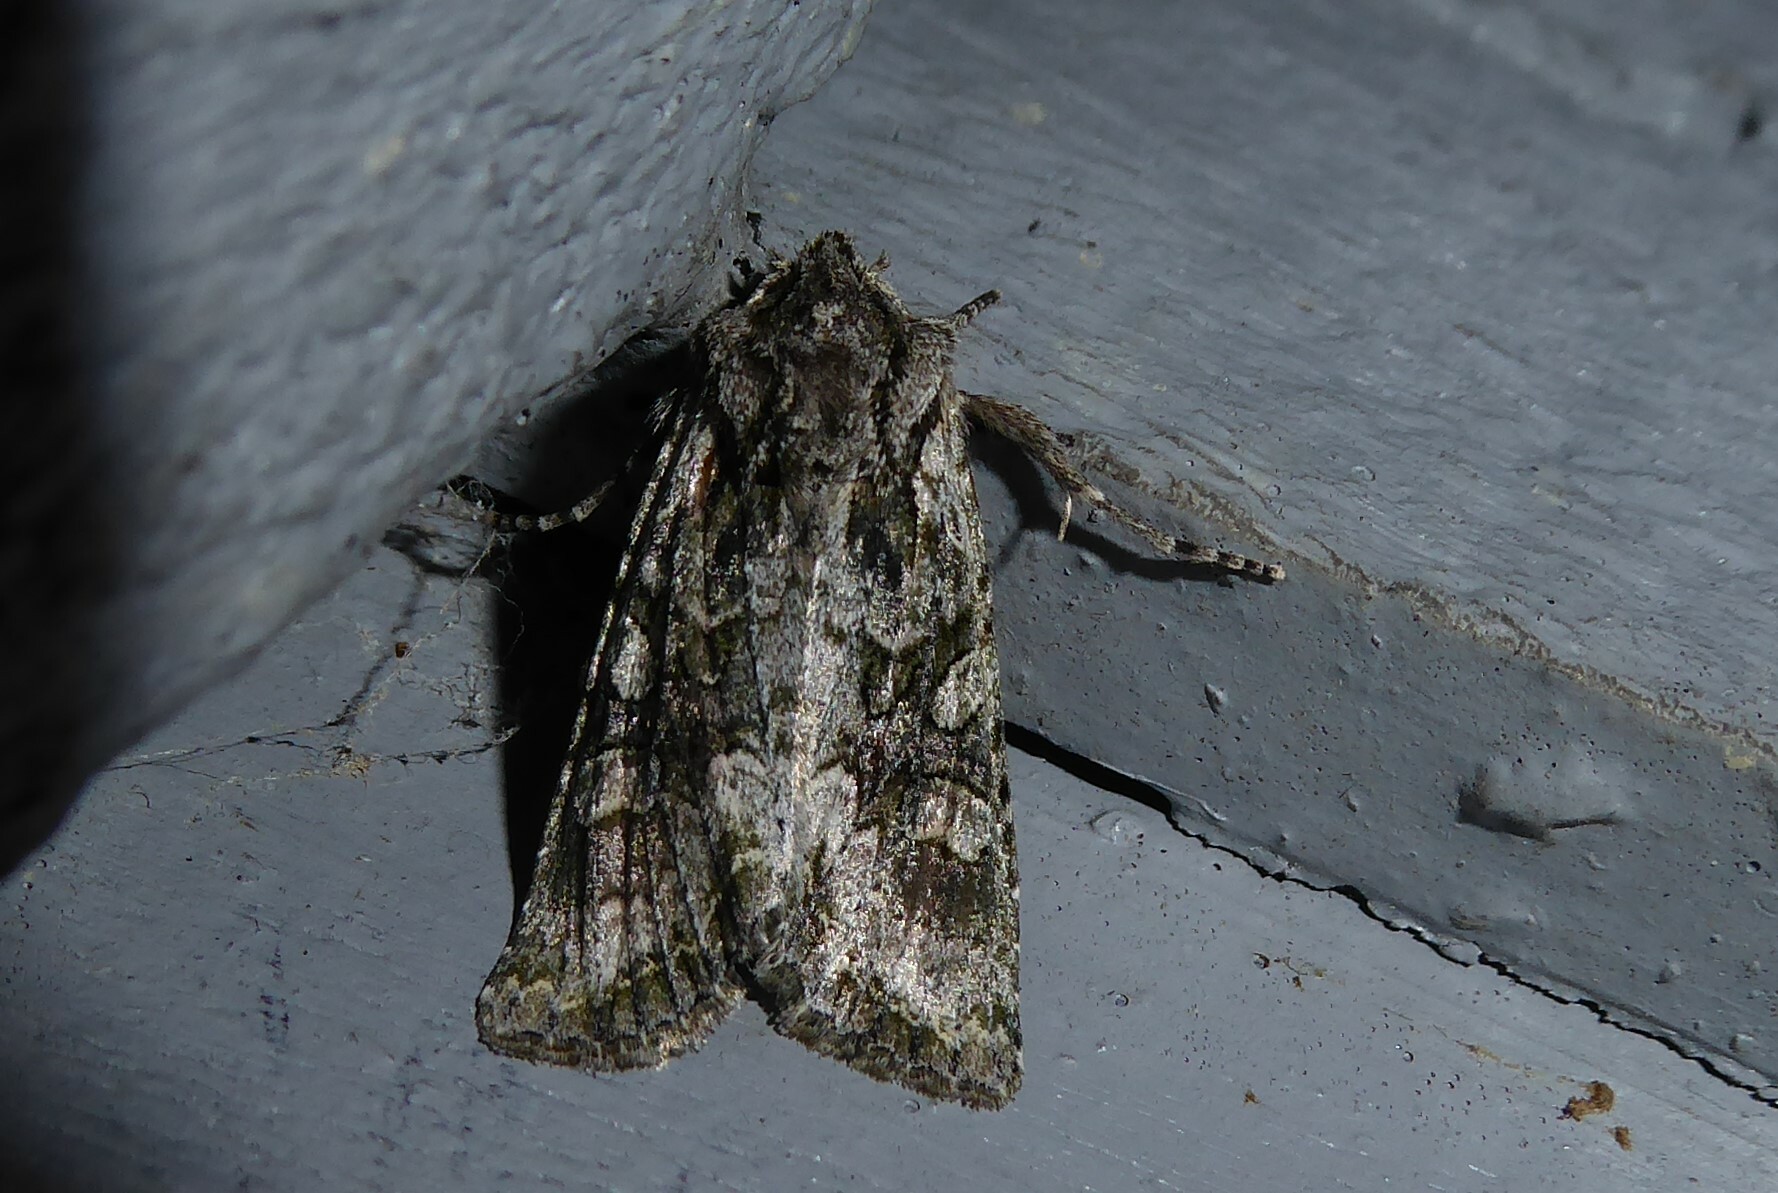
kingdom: Animalia
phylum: Arthropoda
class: Insecta
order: Lepidoptera
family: Noctuidae
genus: Ichneutica
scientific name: Ichneutica mutans
